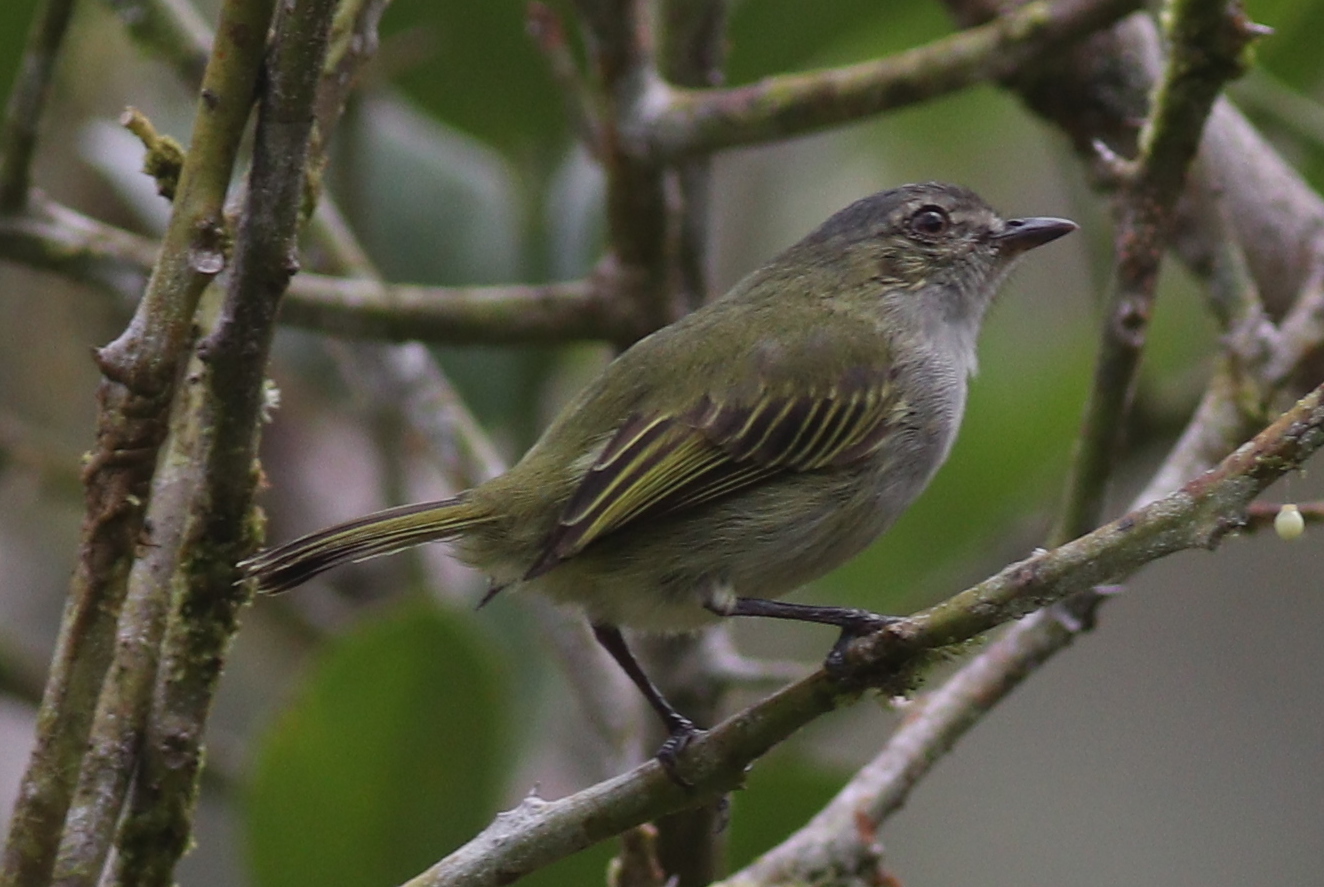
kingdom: Animalia
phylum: Chordata
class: Aves
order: Passeriformes
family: Tyrannidae
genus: Zimmerius
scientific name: Zimmerius vilissimus
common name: Paltry tyrannulet
